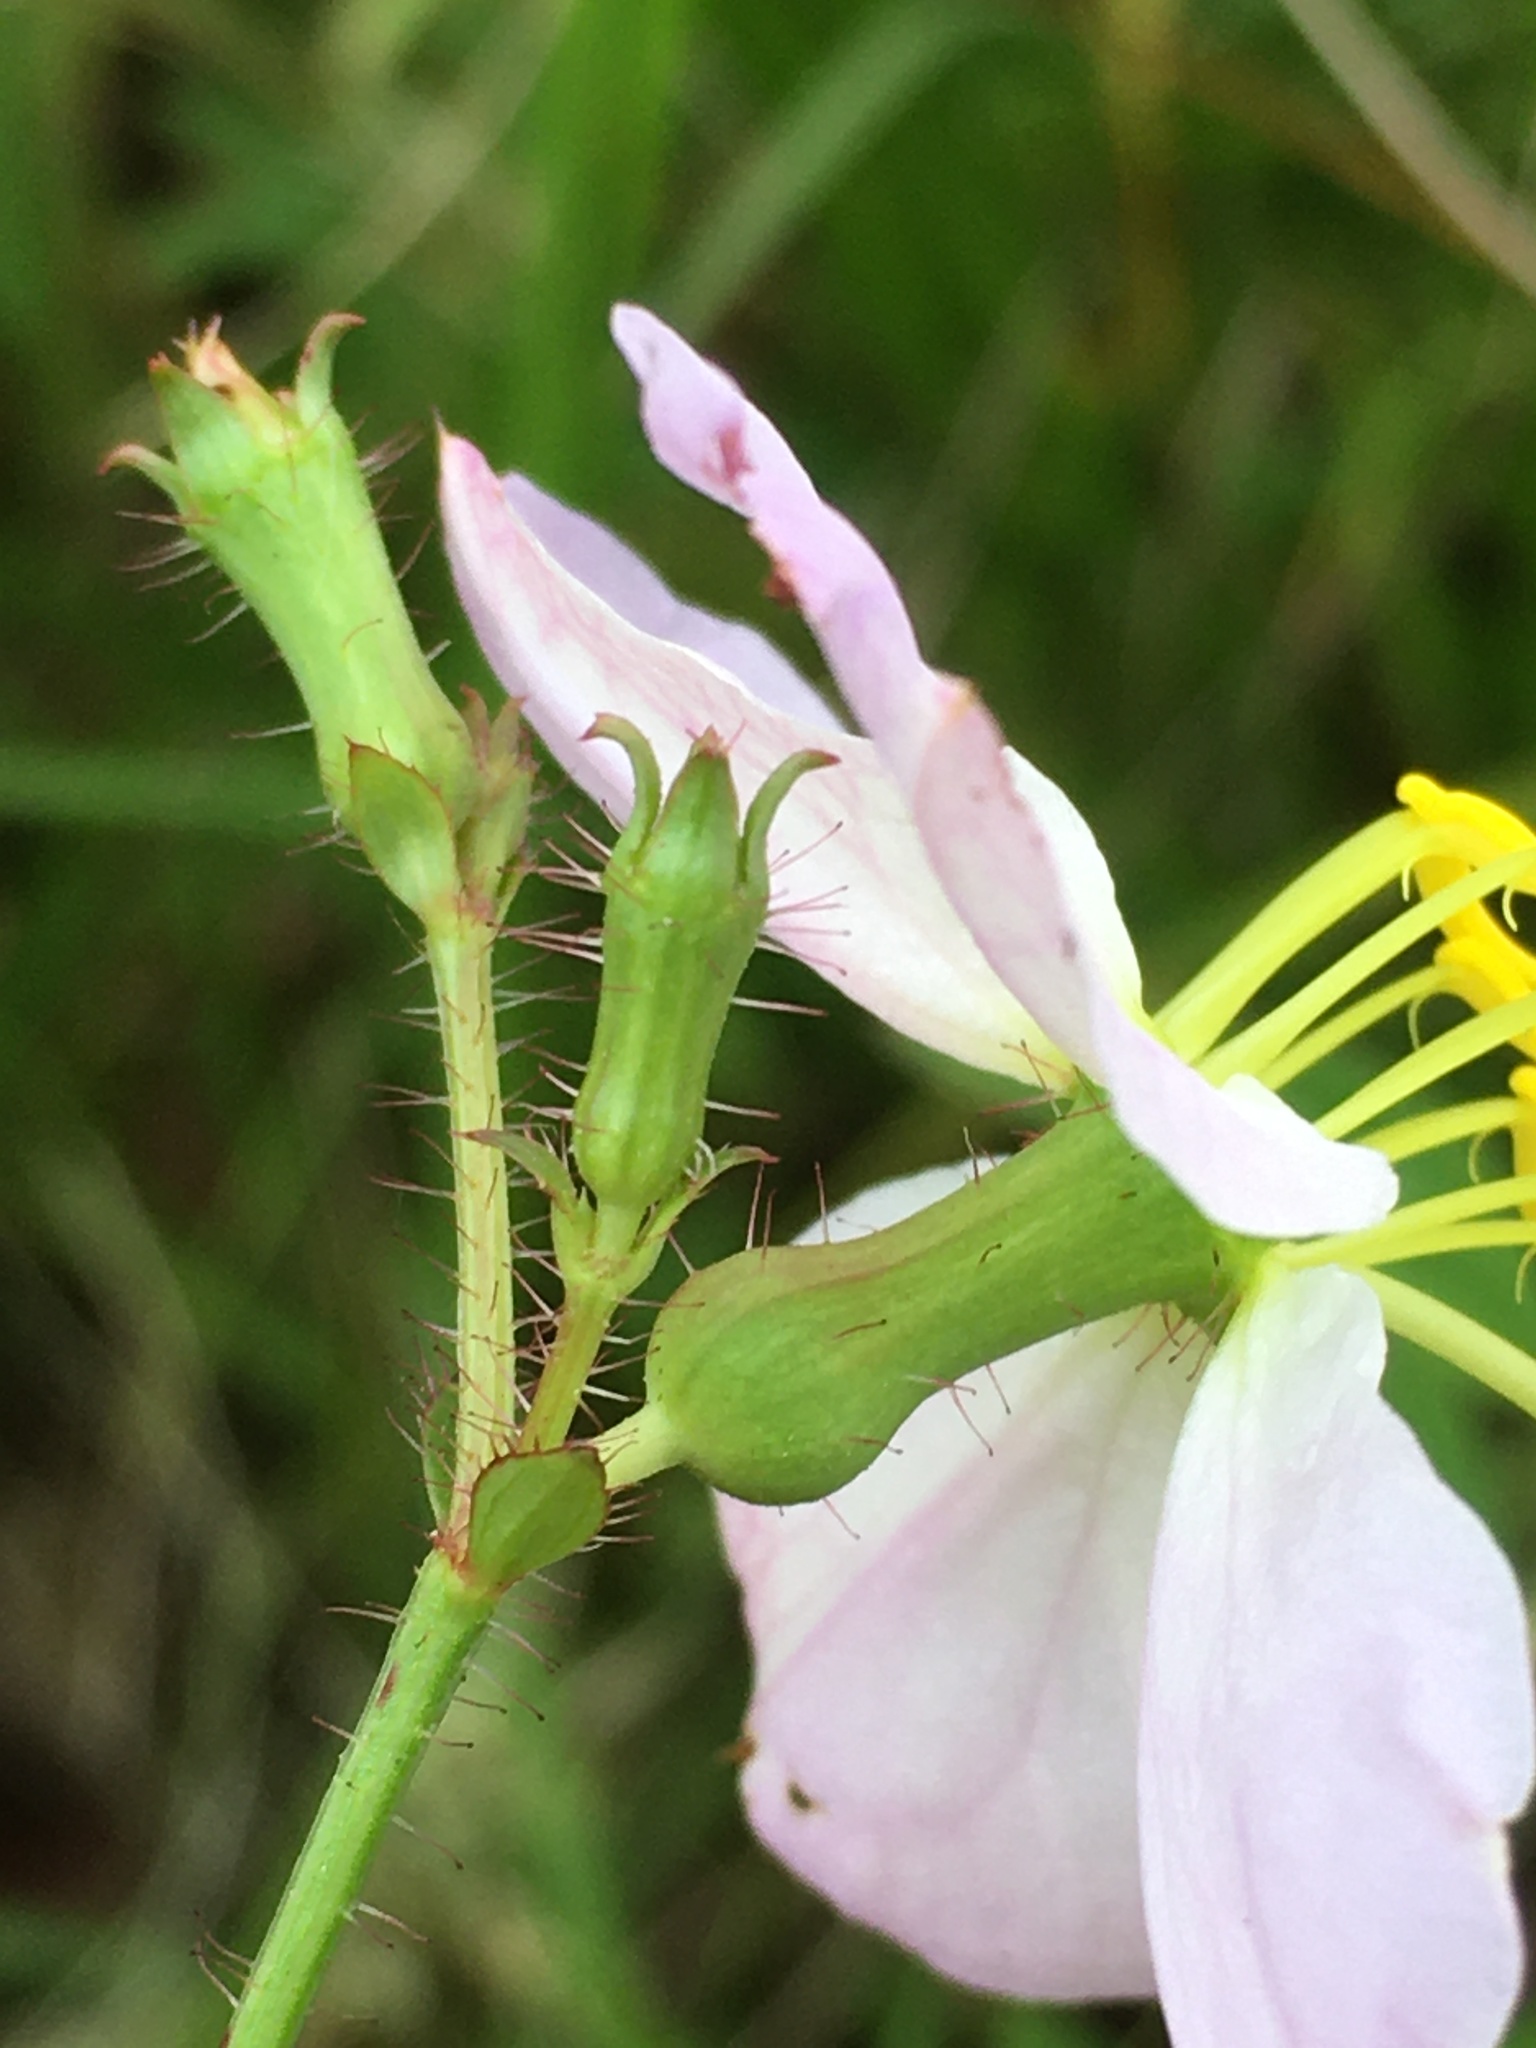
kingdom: Plantae
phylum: Tracheophyta
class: Magnoliopsida
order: Myrtales
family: Melastomataceae
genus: Rhexia
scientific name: Rhexia mariana
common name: Dull meadow-pitcher
